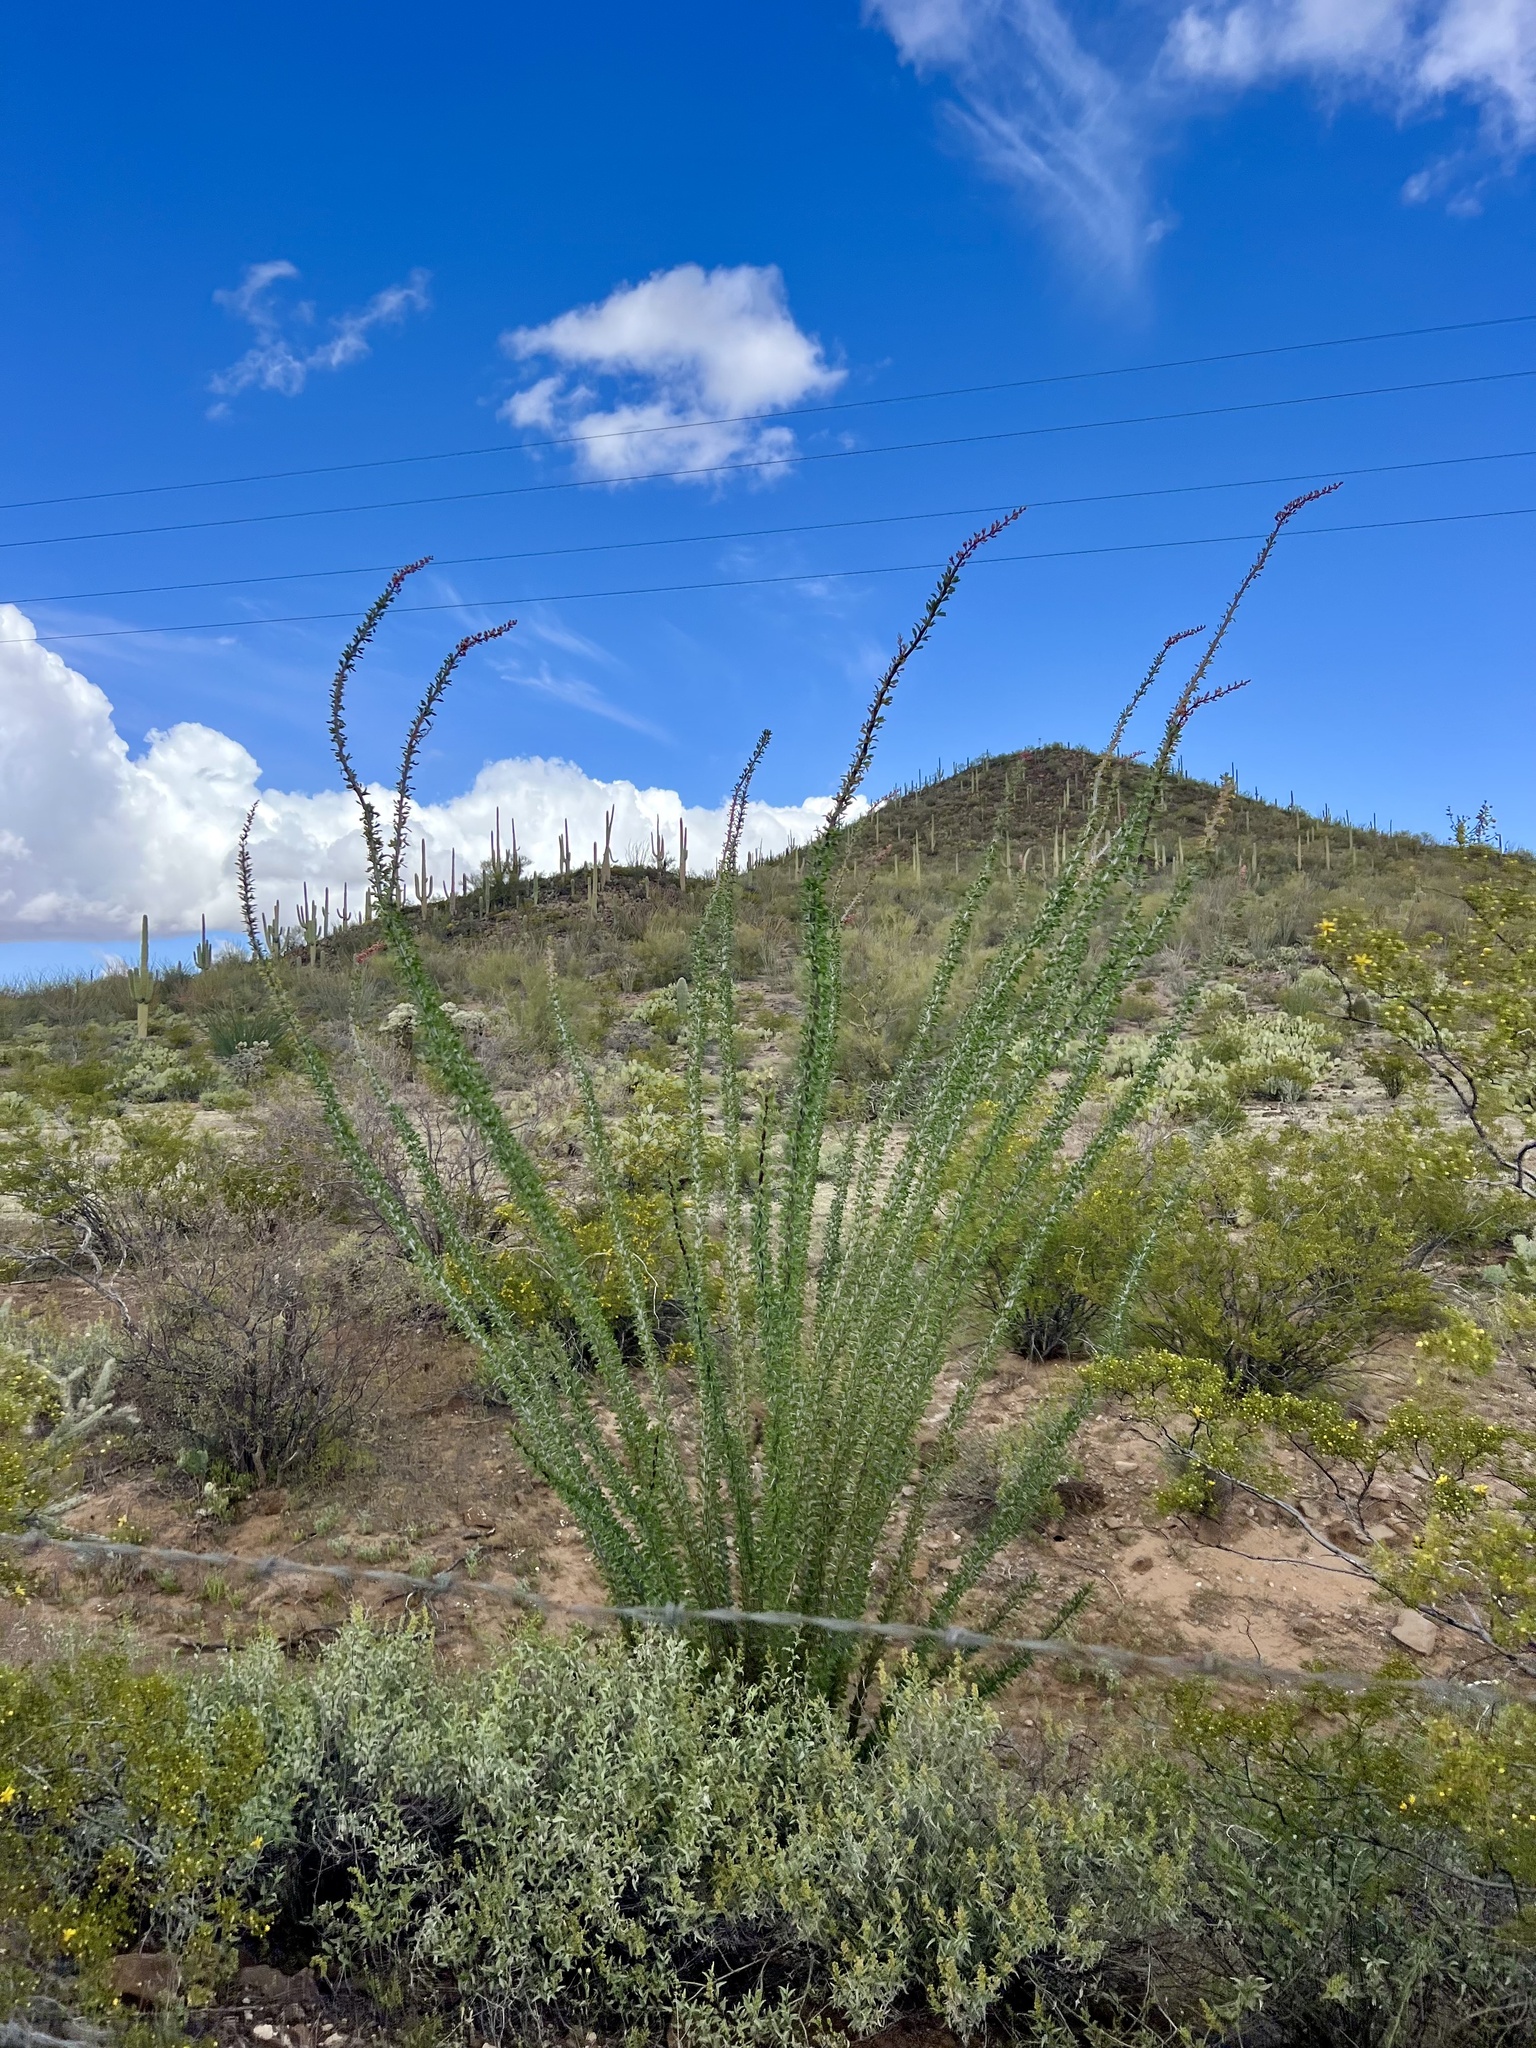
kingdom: Plantae
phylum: Tracheophyta
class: Magnoliopsida
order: Ericales
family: Fouquieriaceae
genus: Fouquieria
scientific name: Fouquieria splendens
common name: Vine-cactus
